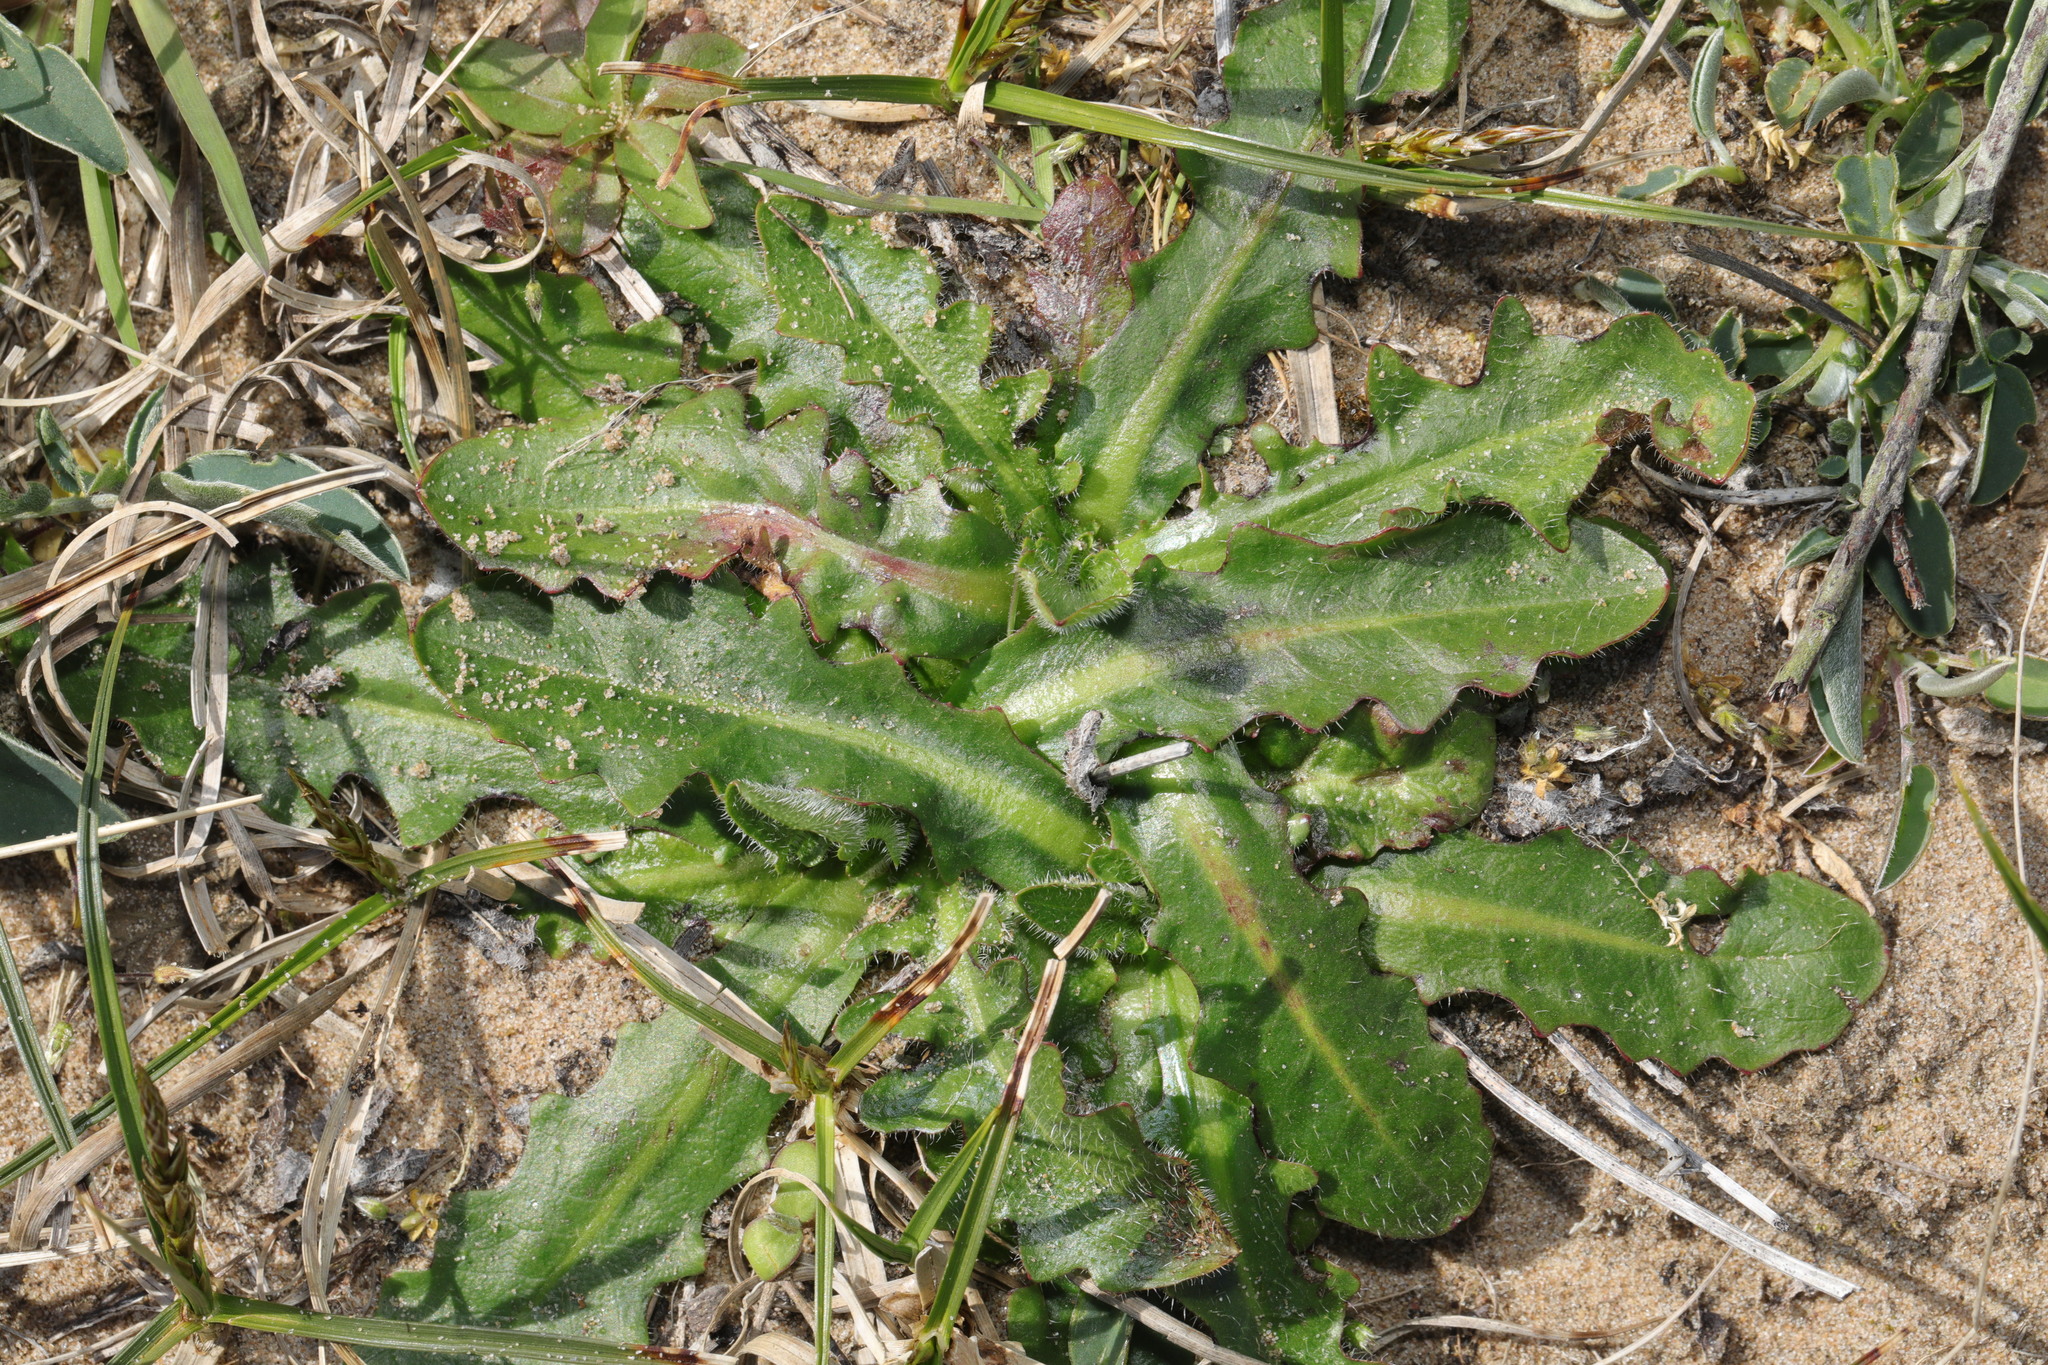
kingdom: Plantae
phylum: Tracheophyta
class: Magnoliopsida
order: Asterales
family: Asteraceae
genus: Hypochaeris
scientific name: Hypochaeris radicata
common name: Flatweed
